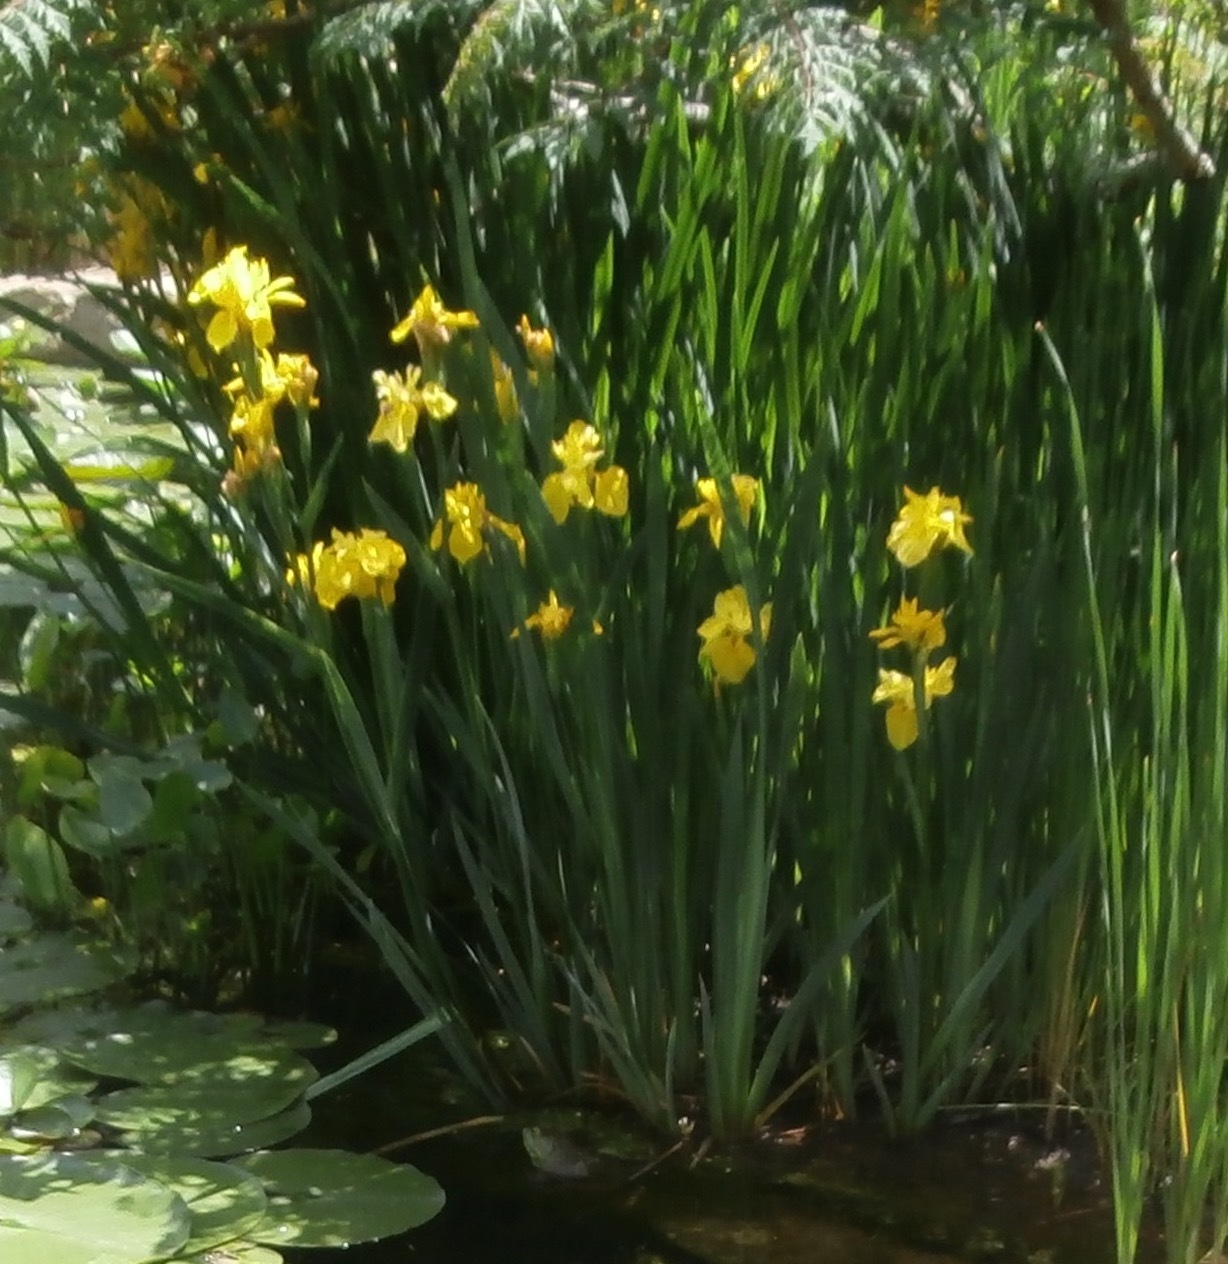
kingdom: Plantae
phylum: Tracheophyta
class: Liliopsida
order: Asparagales
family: Iridaceae
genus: Iris
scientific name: Iris pseudacorus
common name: Yellow flag
